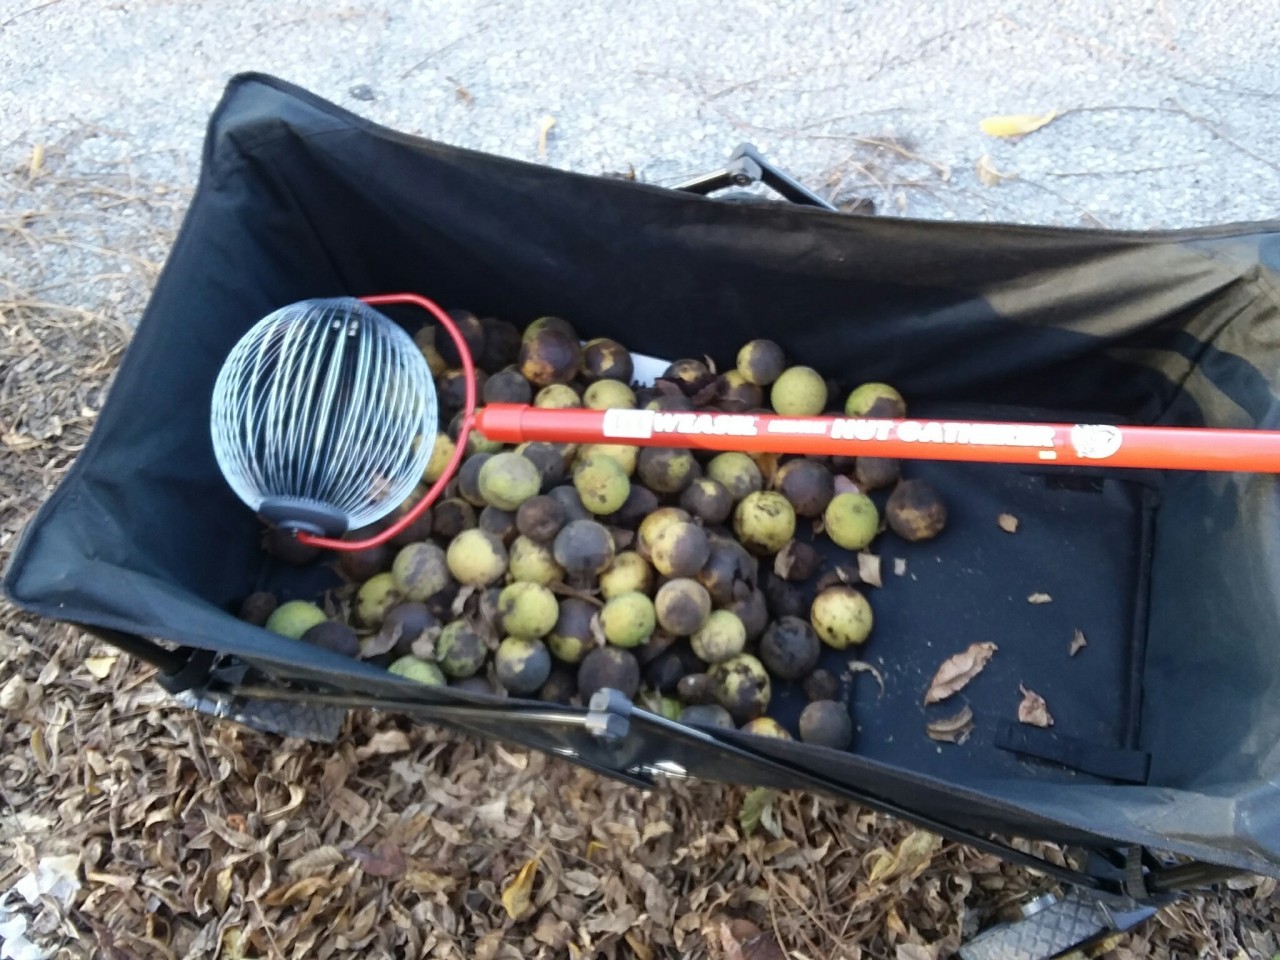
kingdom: Plantae
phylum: Tracheophyta
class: Magnoliopsida
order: Fagales
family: Juglandaceae
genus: Juglans
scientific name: Juglans nigra
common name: Black walnut
